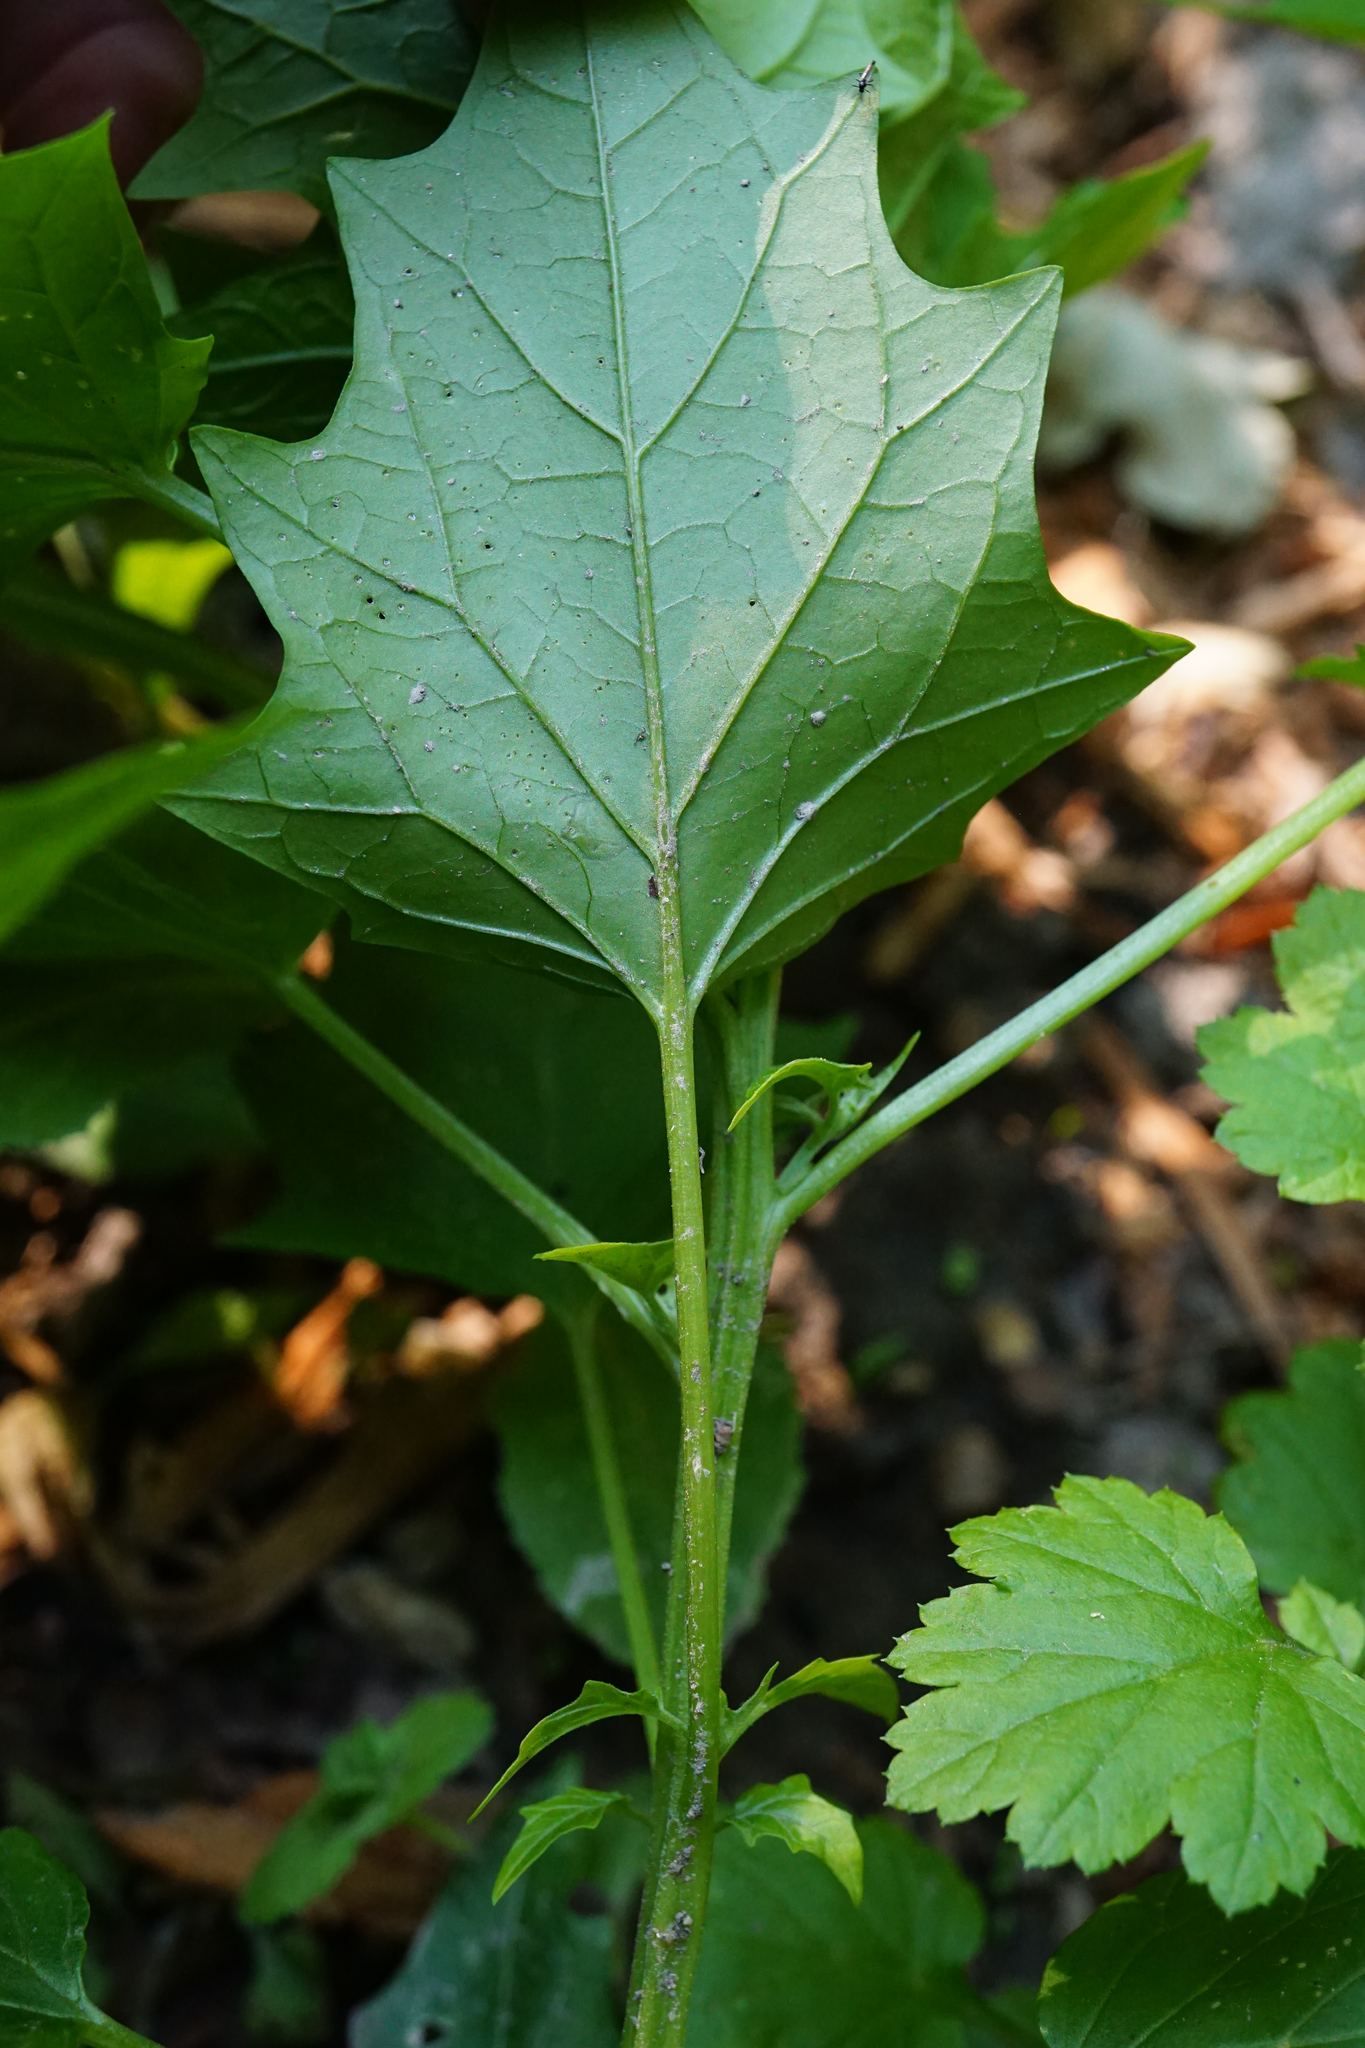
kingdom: Plantae
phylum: Tracheophyta
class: Magnoliopsida
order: Caryophyllales
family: Amaranthaceae
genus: Chenopodiastrum
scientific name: Chenopodiastrum hybridum
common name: Mapleleaf goosefoot
